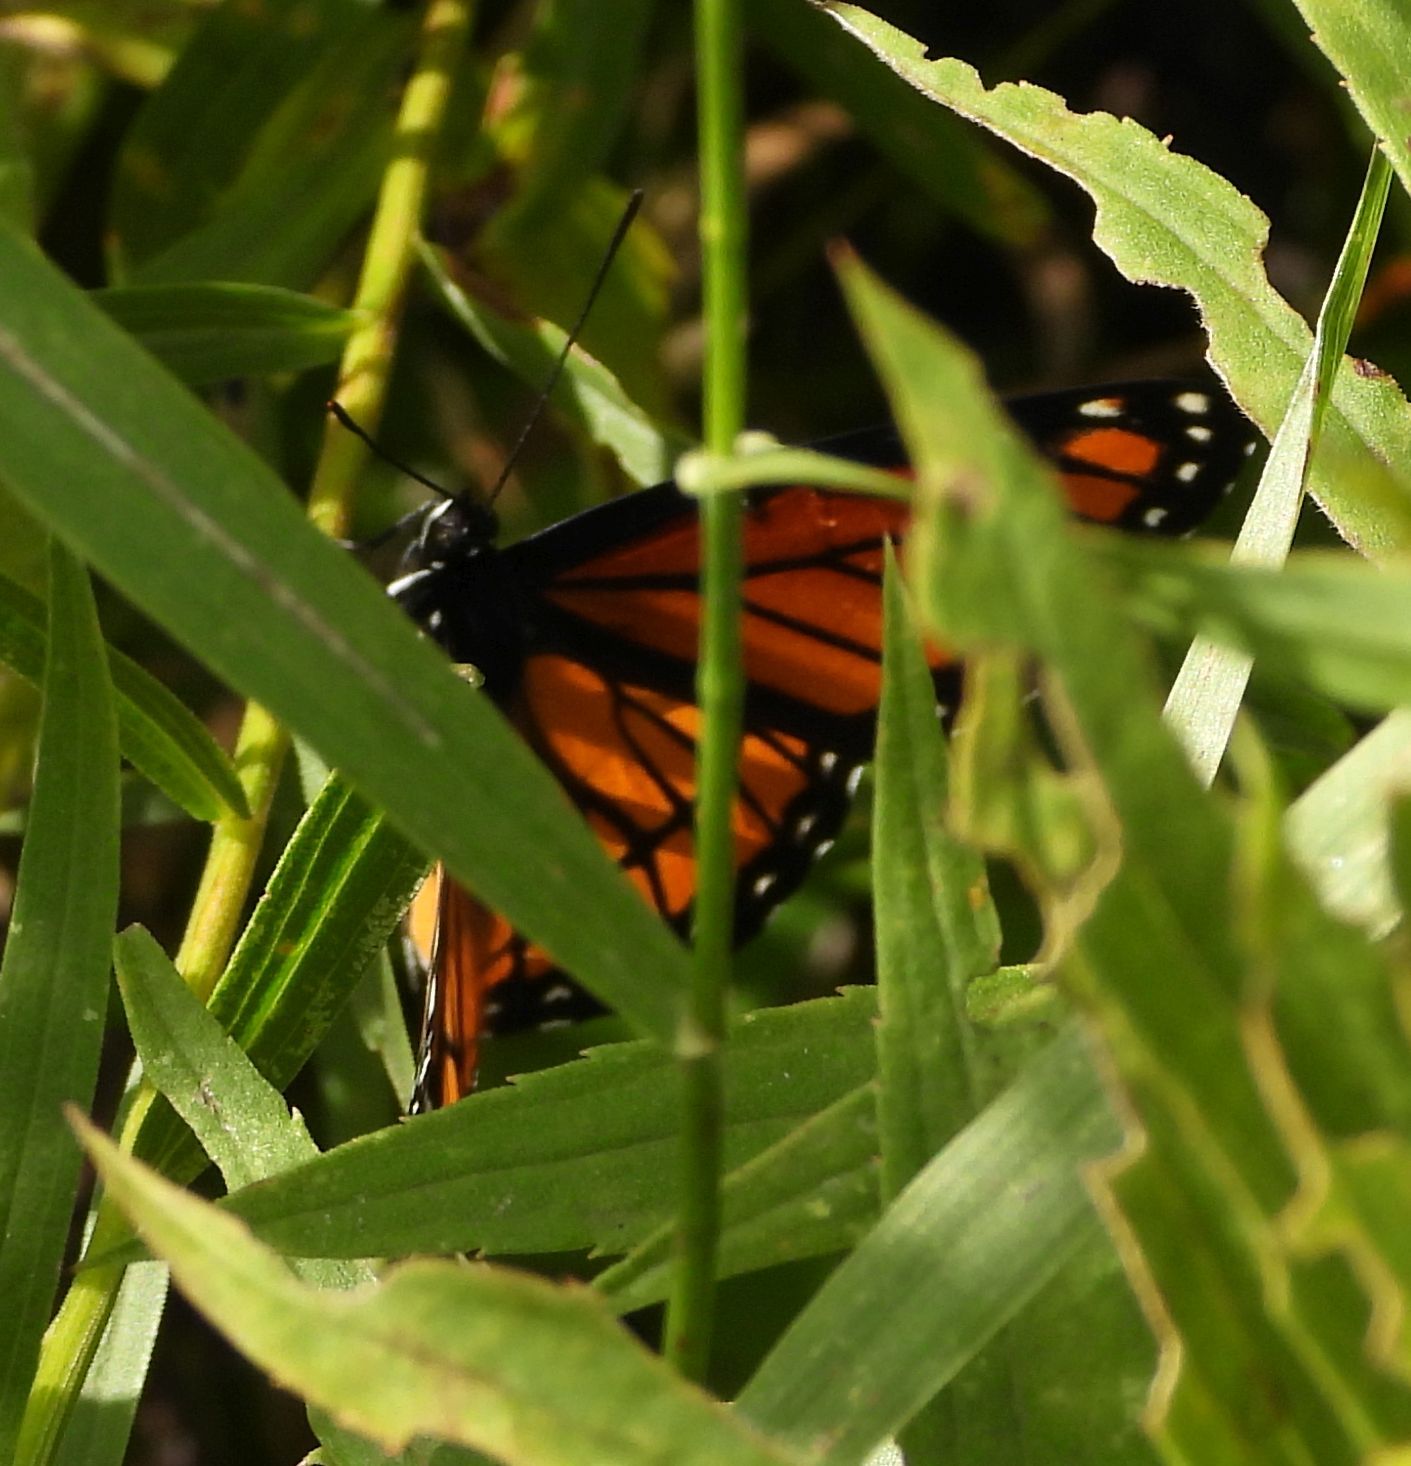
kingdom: Animalia
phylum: Arthropoda
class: Insecta
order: Lepidoptera
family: Nymphalidae
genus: Limenitis
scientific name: Limenitis archippus
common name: Viceroy
